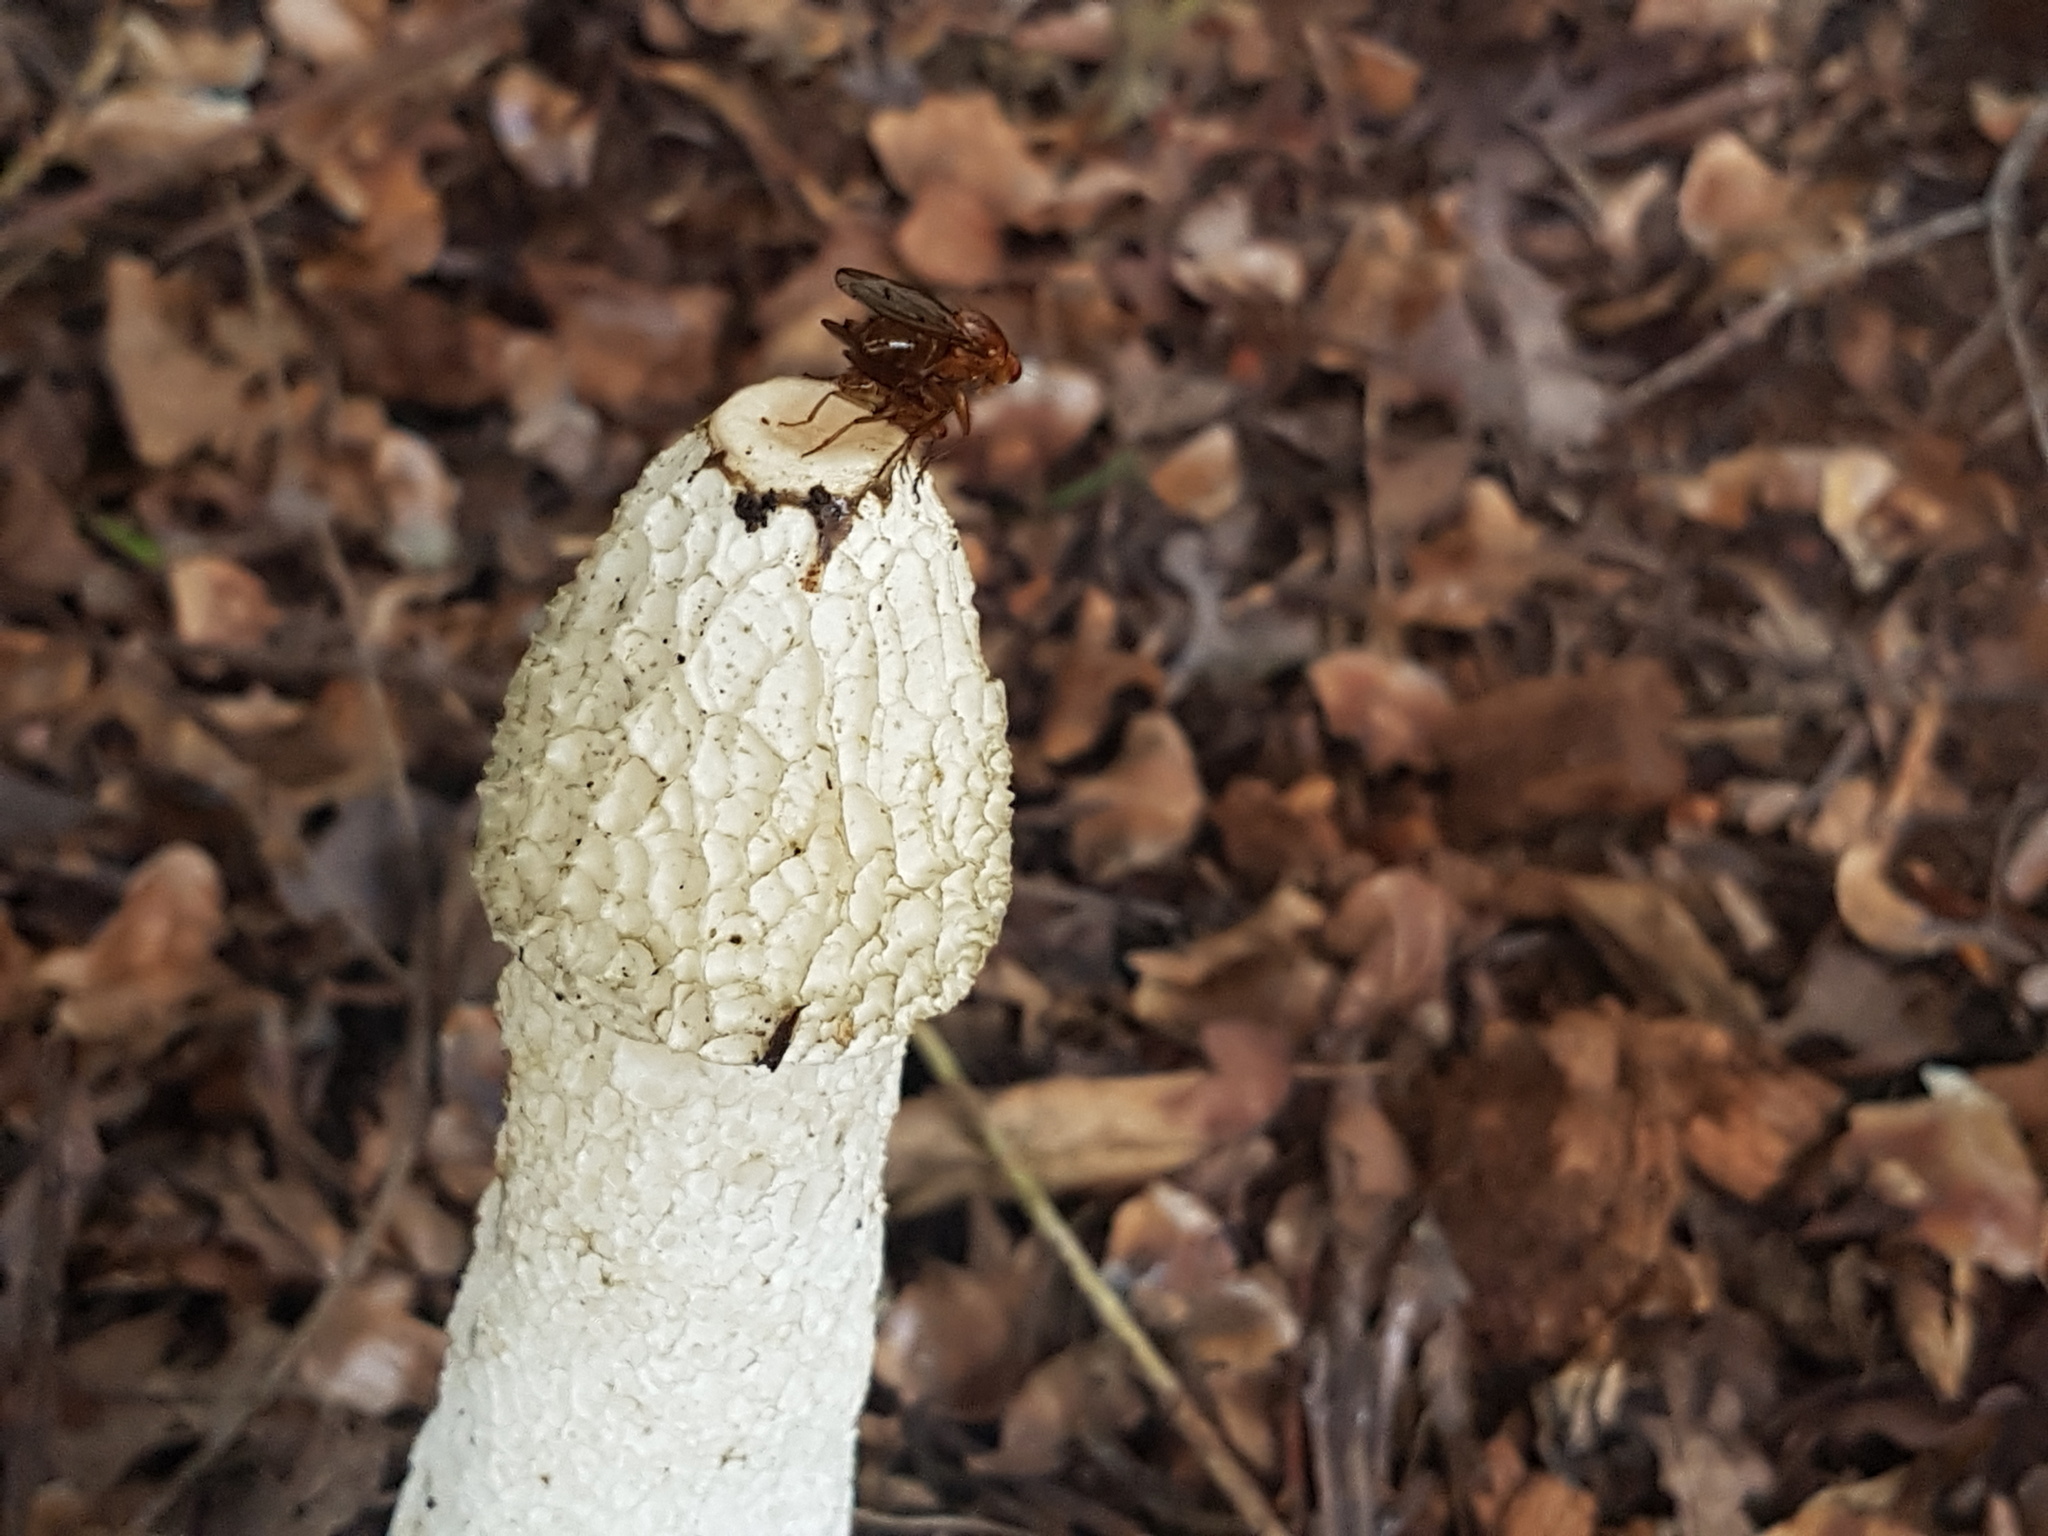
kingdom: Fungi
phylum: Basidiomycota
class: Agaricomycetes
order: Phallales
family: Phallaceae
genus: Phallus
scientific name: Phallus impudicus
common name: Common stinkhorn
